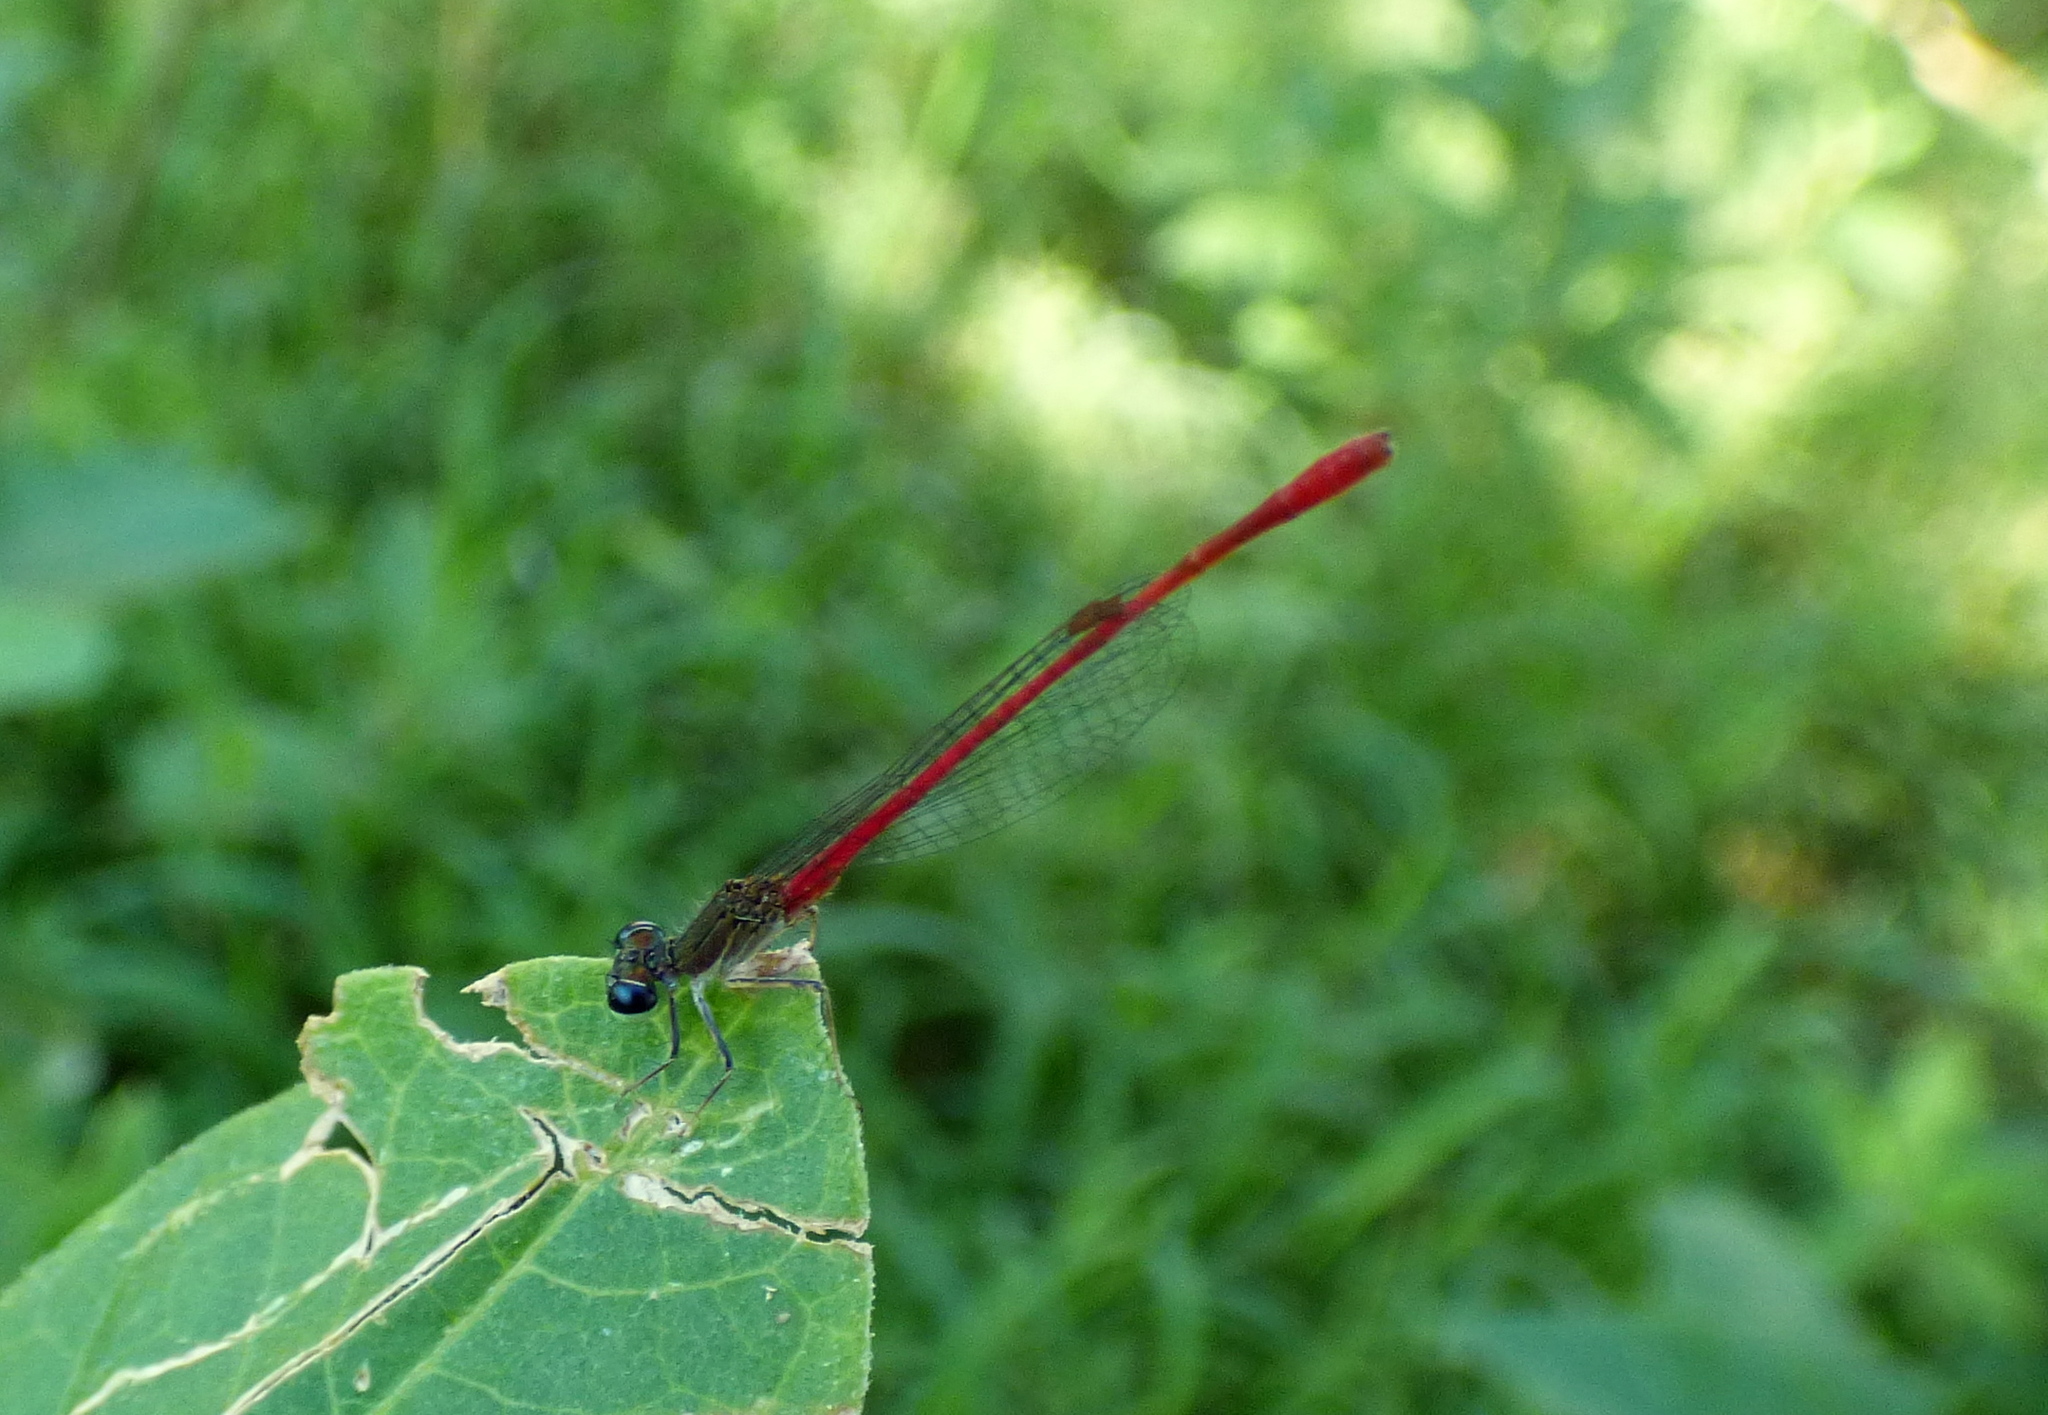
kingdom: Animalia
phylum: Arthropoda
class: Insecta
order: Odonata
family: Coenagrionidae
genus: Telebasis
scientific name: Telebasis willinki
